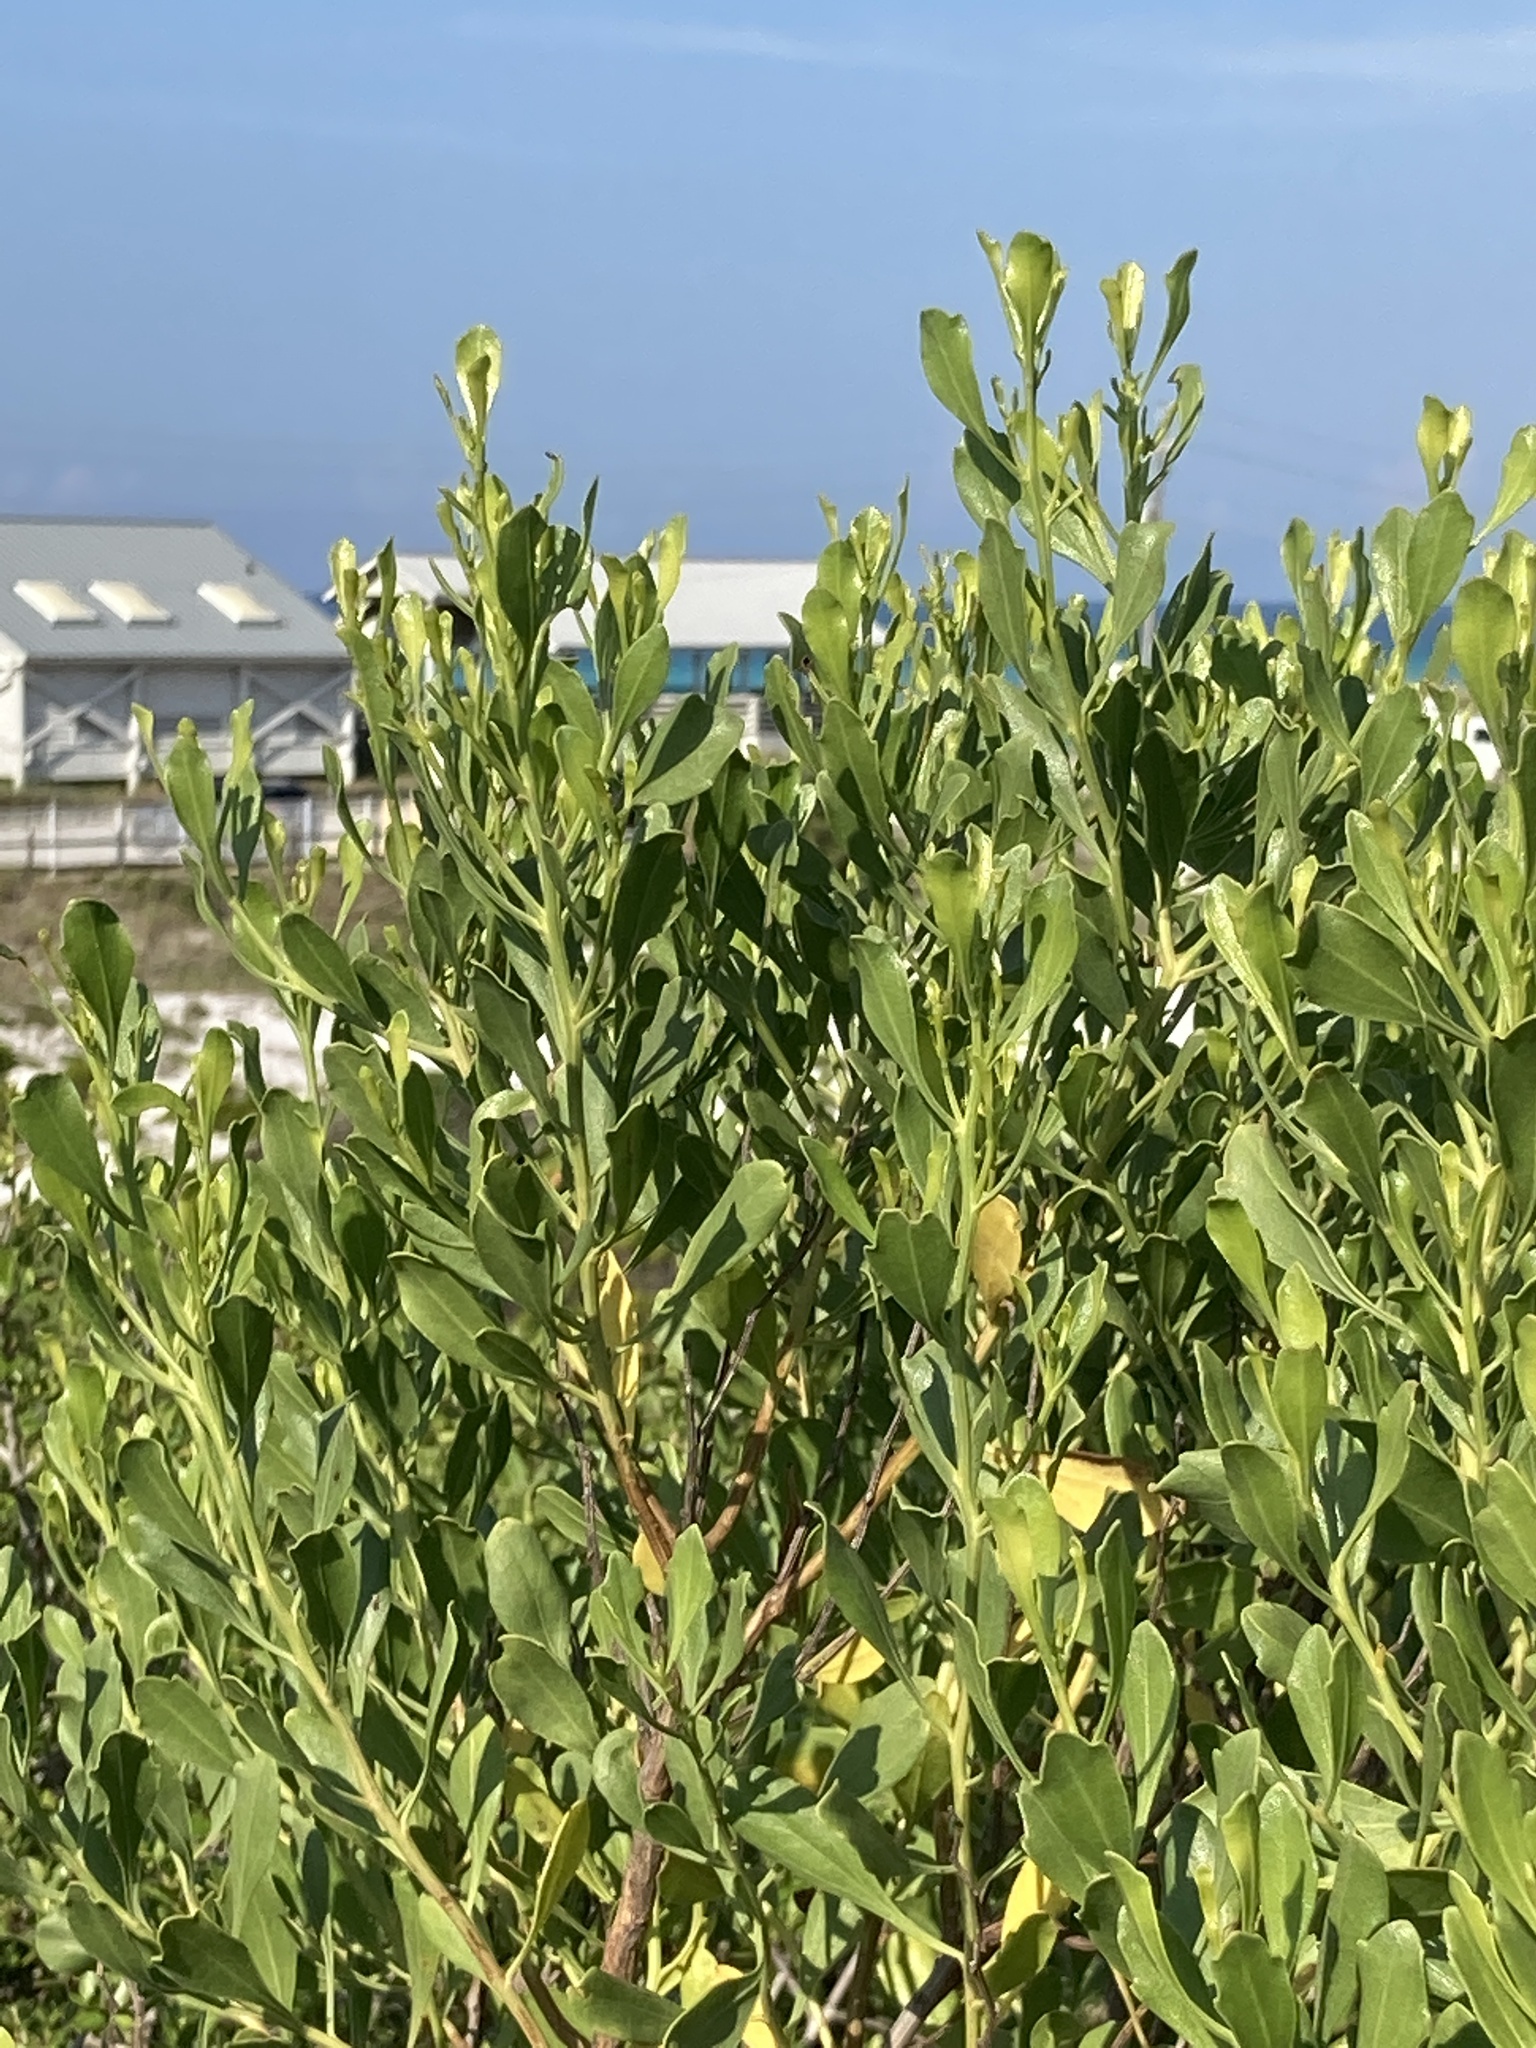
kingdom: Plantae
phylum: Tracheophyta
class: Magnoliopsida
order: Asterales
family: Asteraceae
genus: Baccharis
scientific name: Baccharis halimifolia
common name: Eastern baccharis
